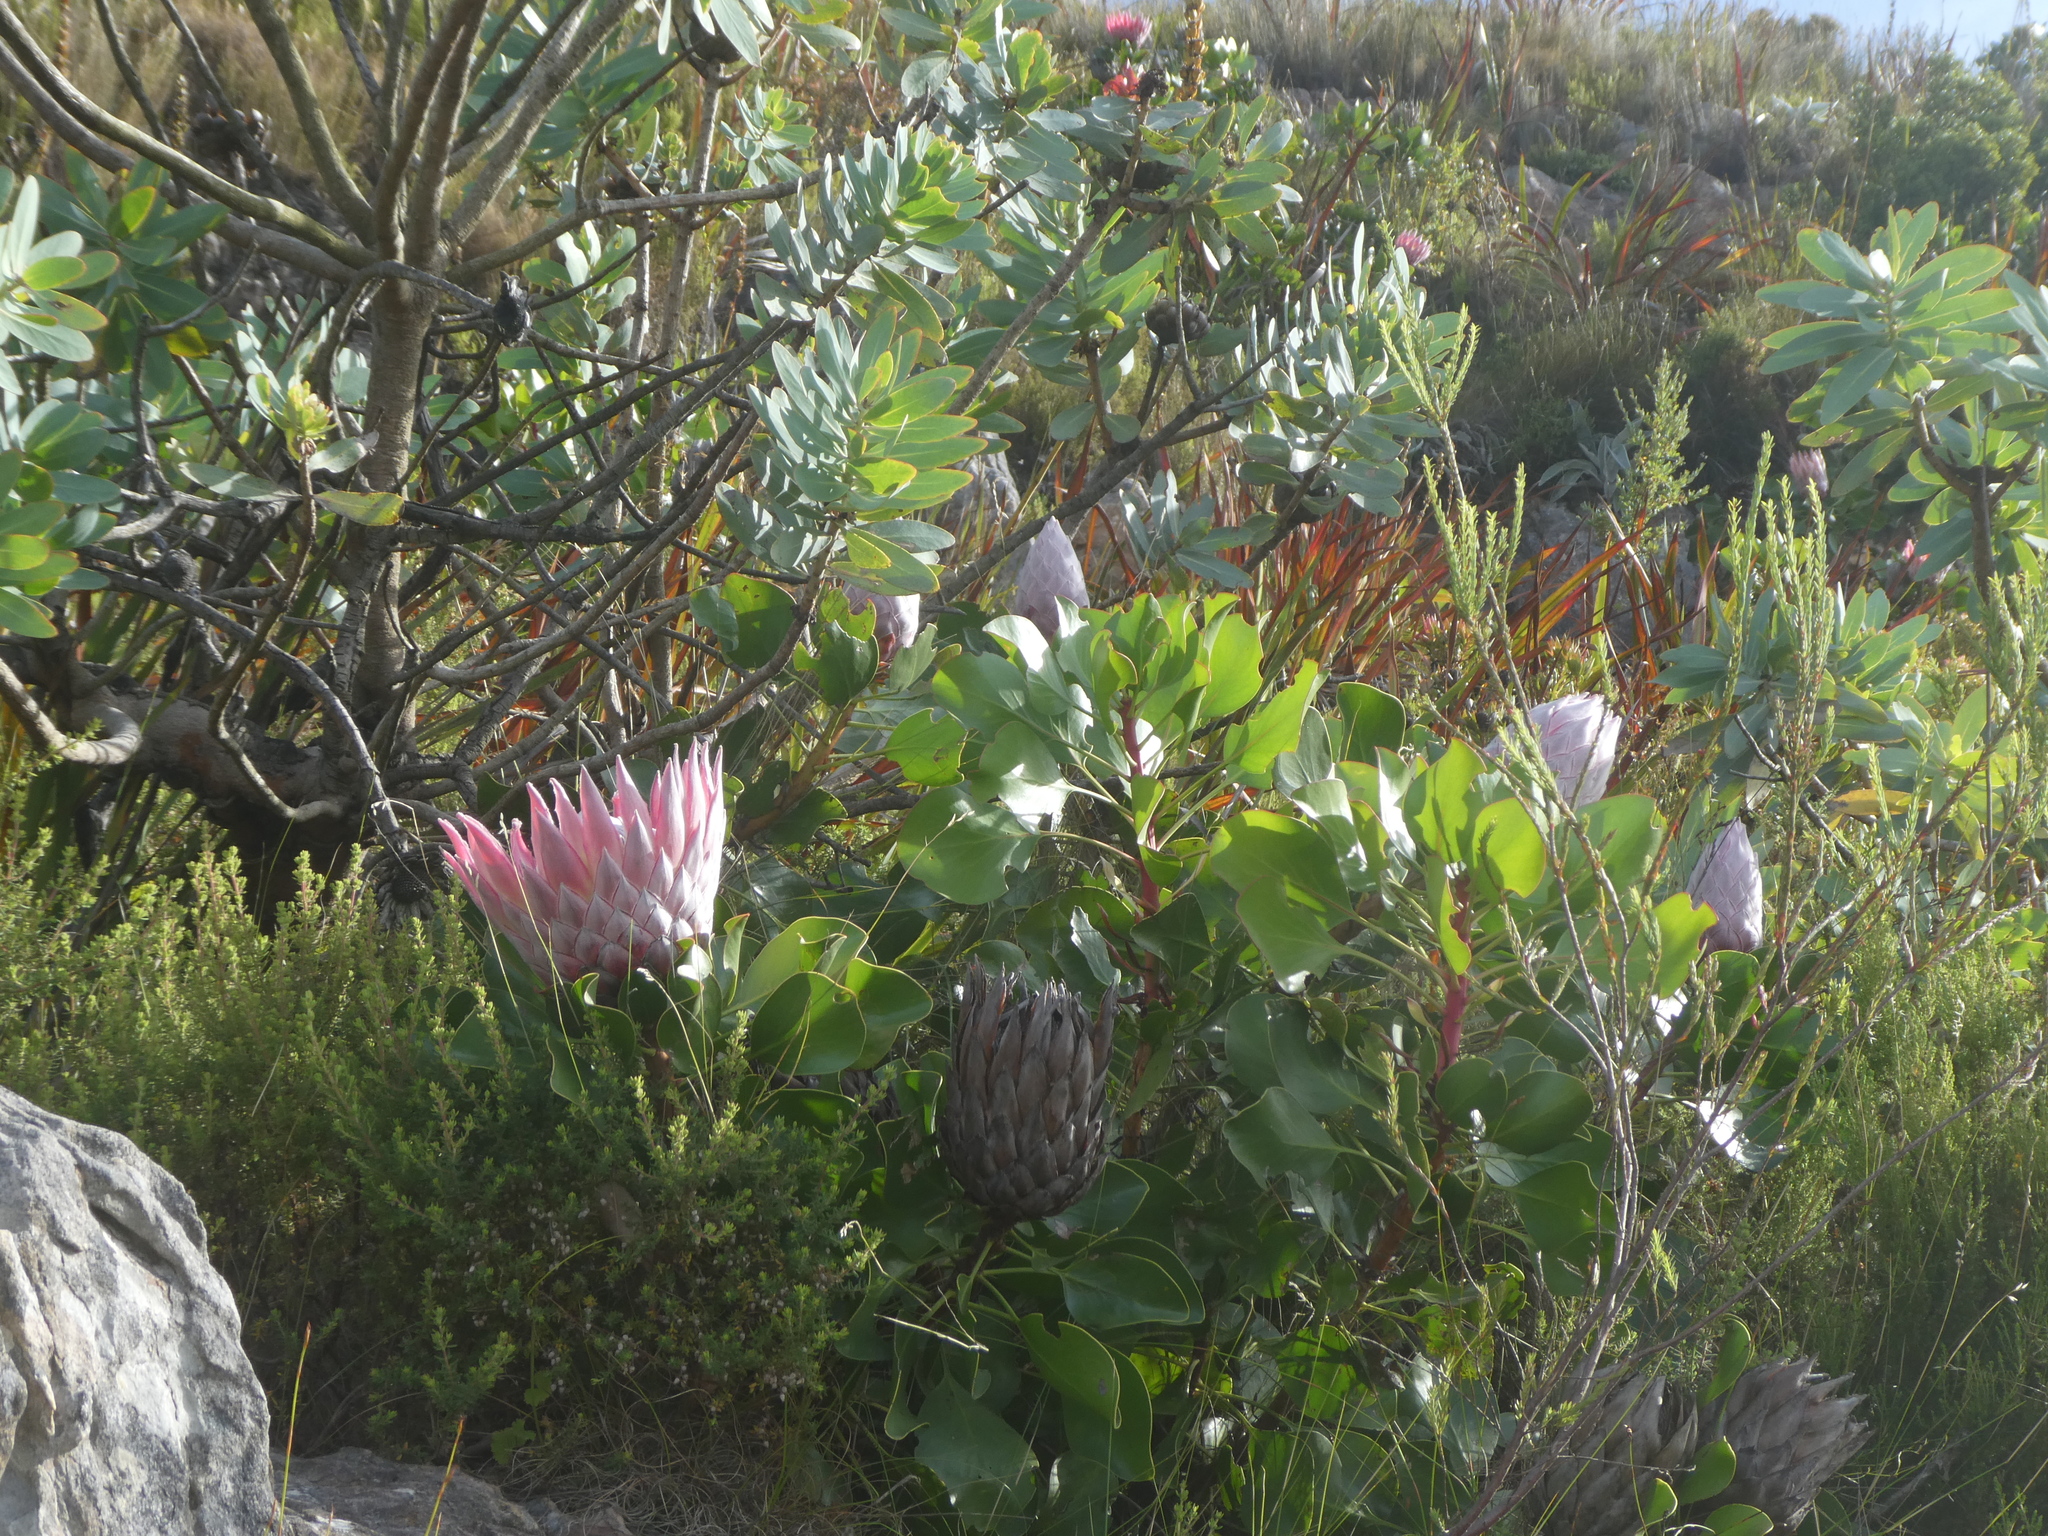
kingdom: Plantae
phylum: Tracheophyta
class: Magnoliopsida
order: Proteales
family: Proteaceae
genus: Protea
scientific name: Protea cynaroides
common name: King protea
